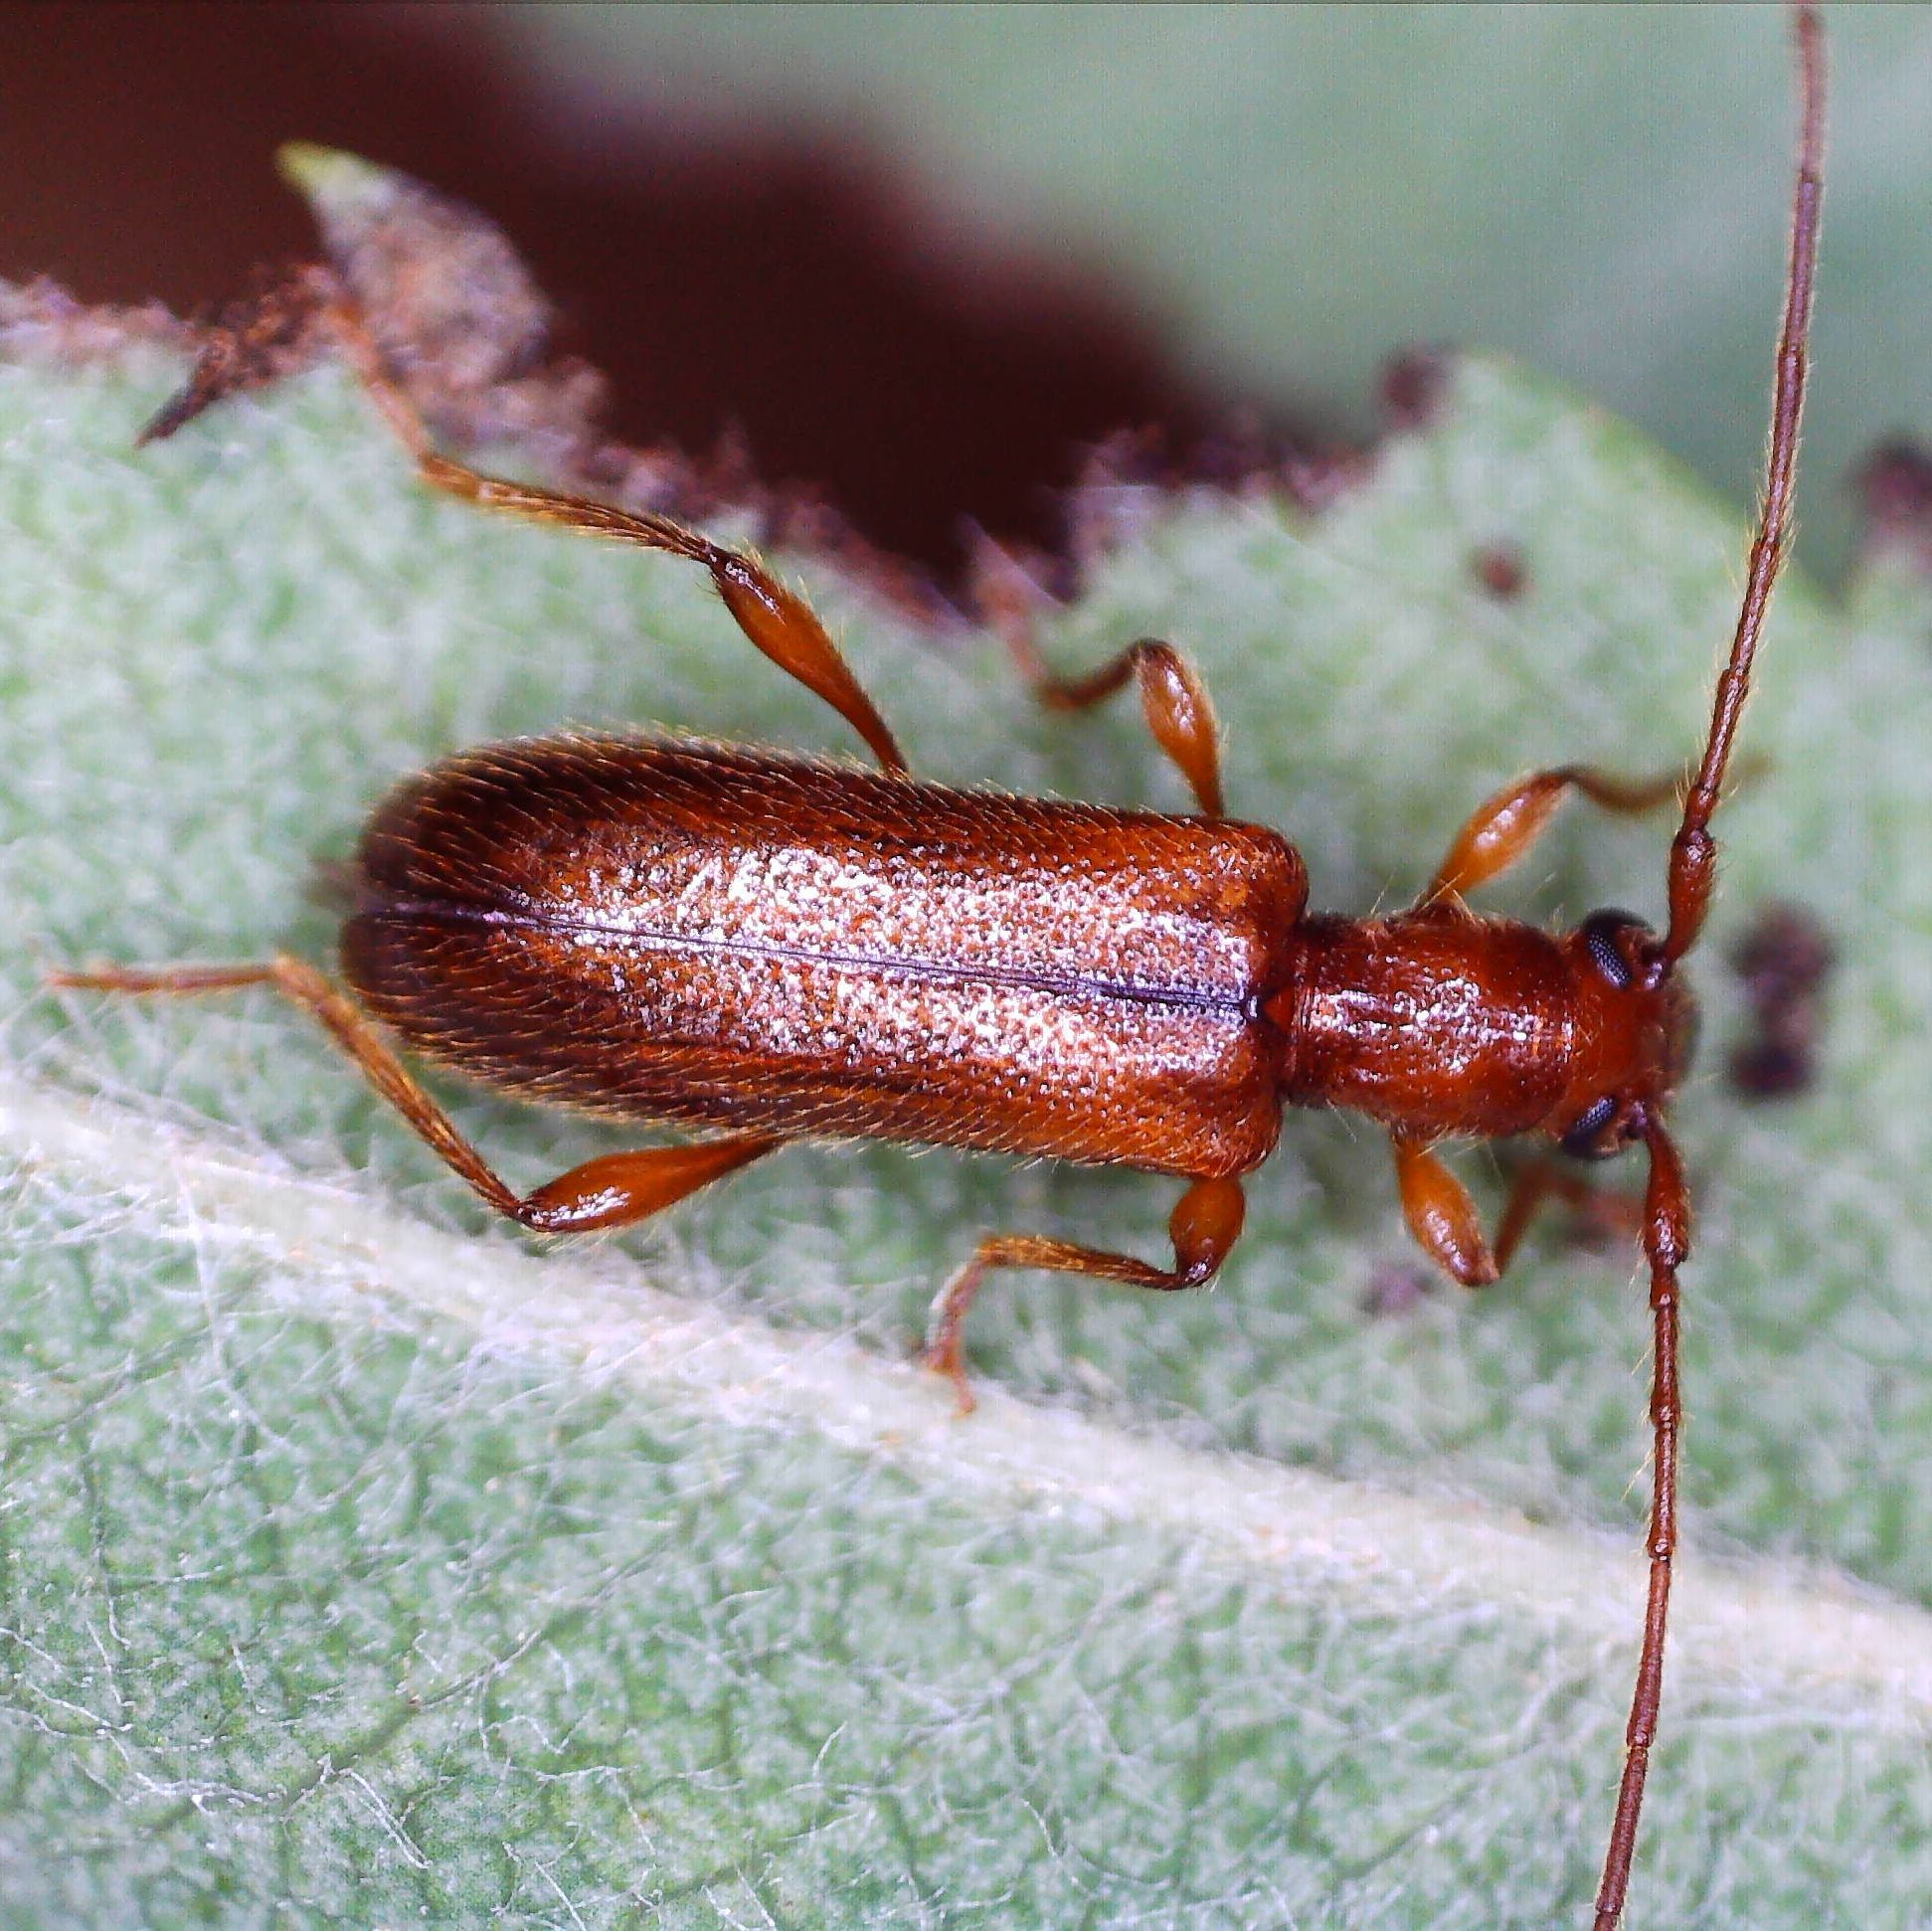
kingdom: Animalia
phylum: Arthropoda
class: Insecta
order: Coleoptera
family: Cerambycidae
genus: Obrium
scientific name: Obrium brunneum
